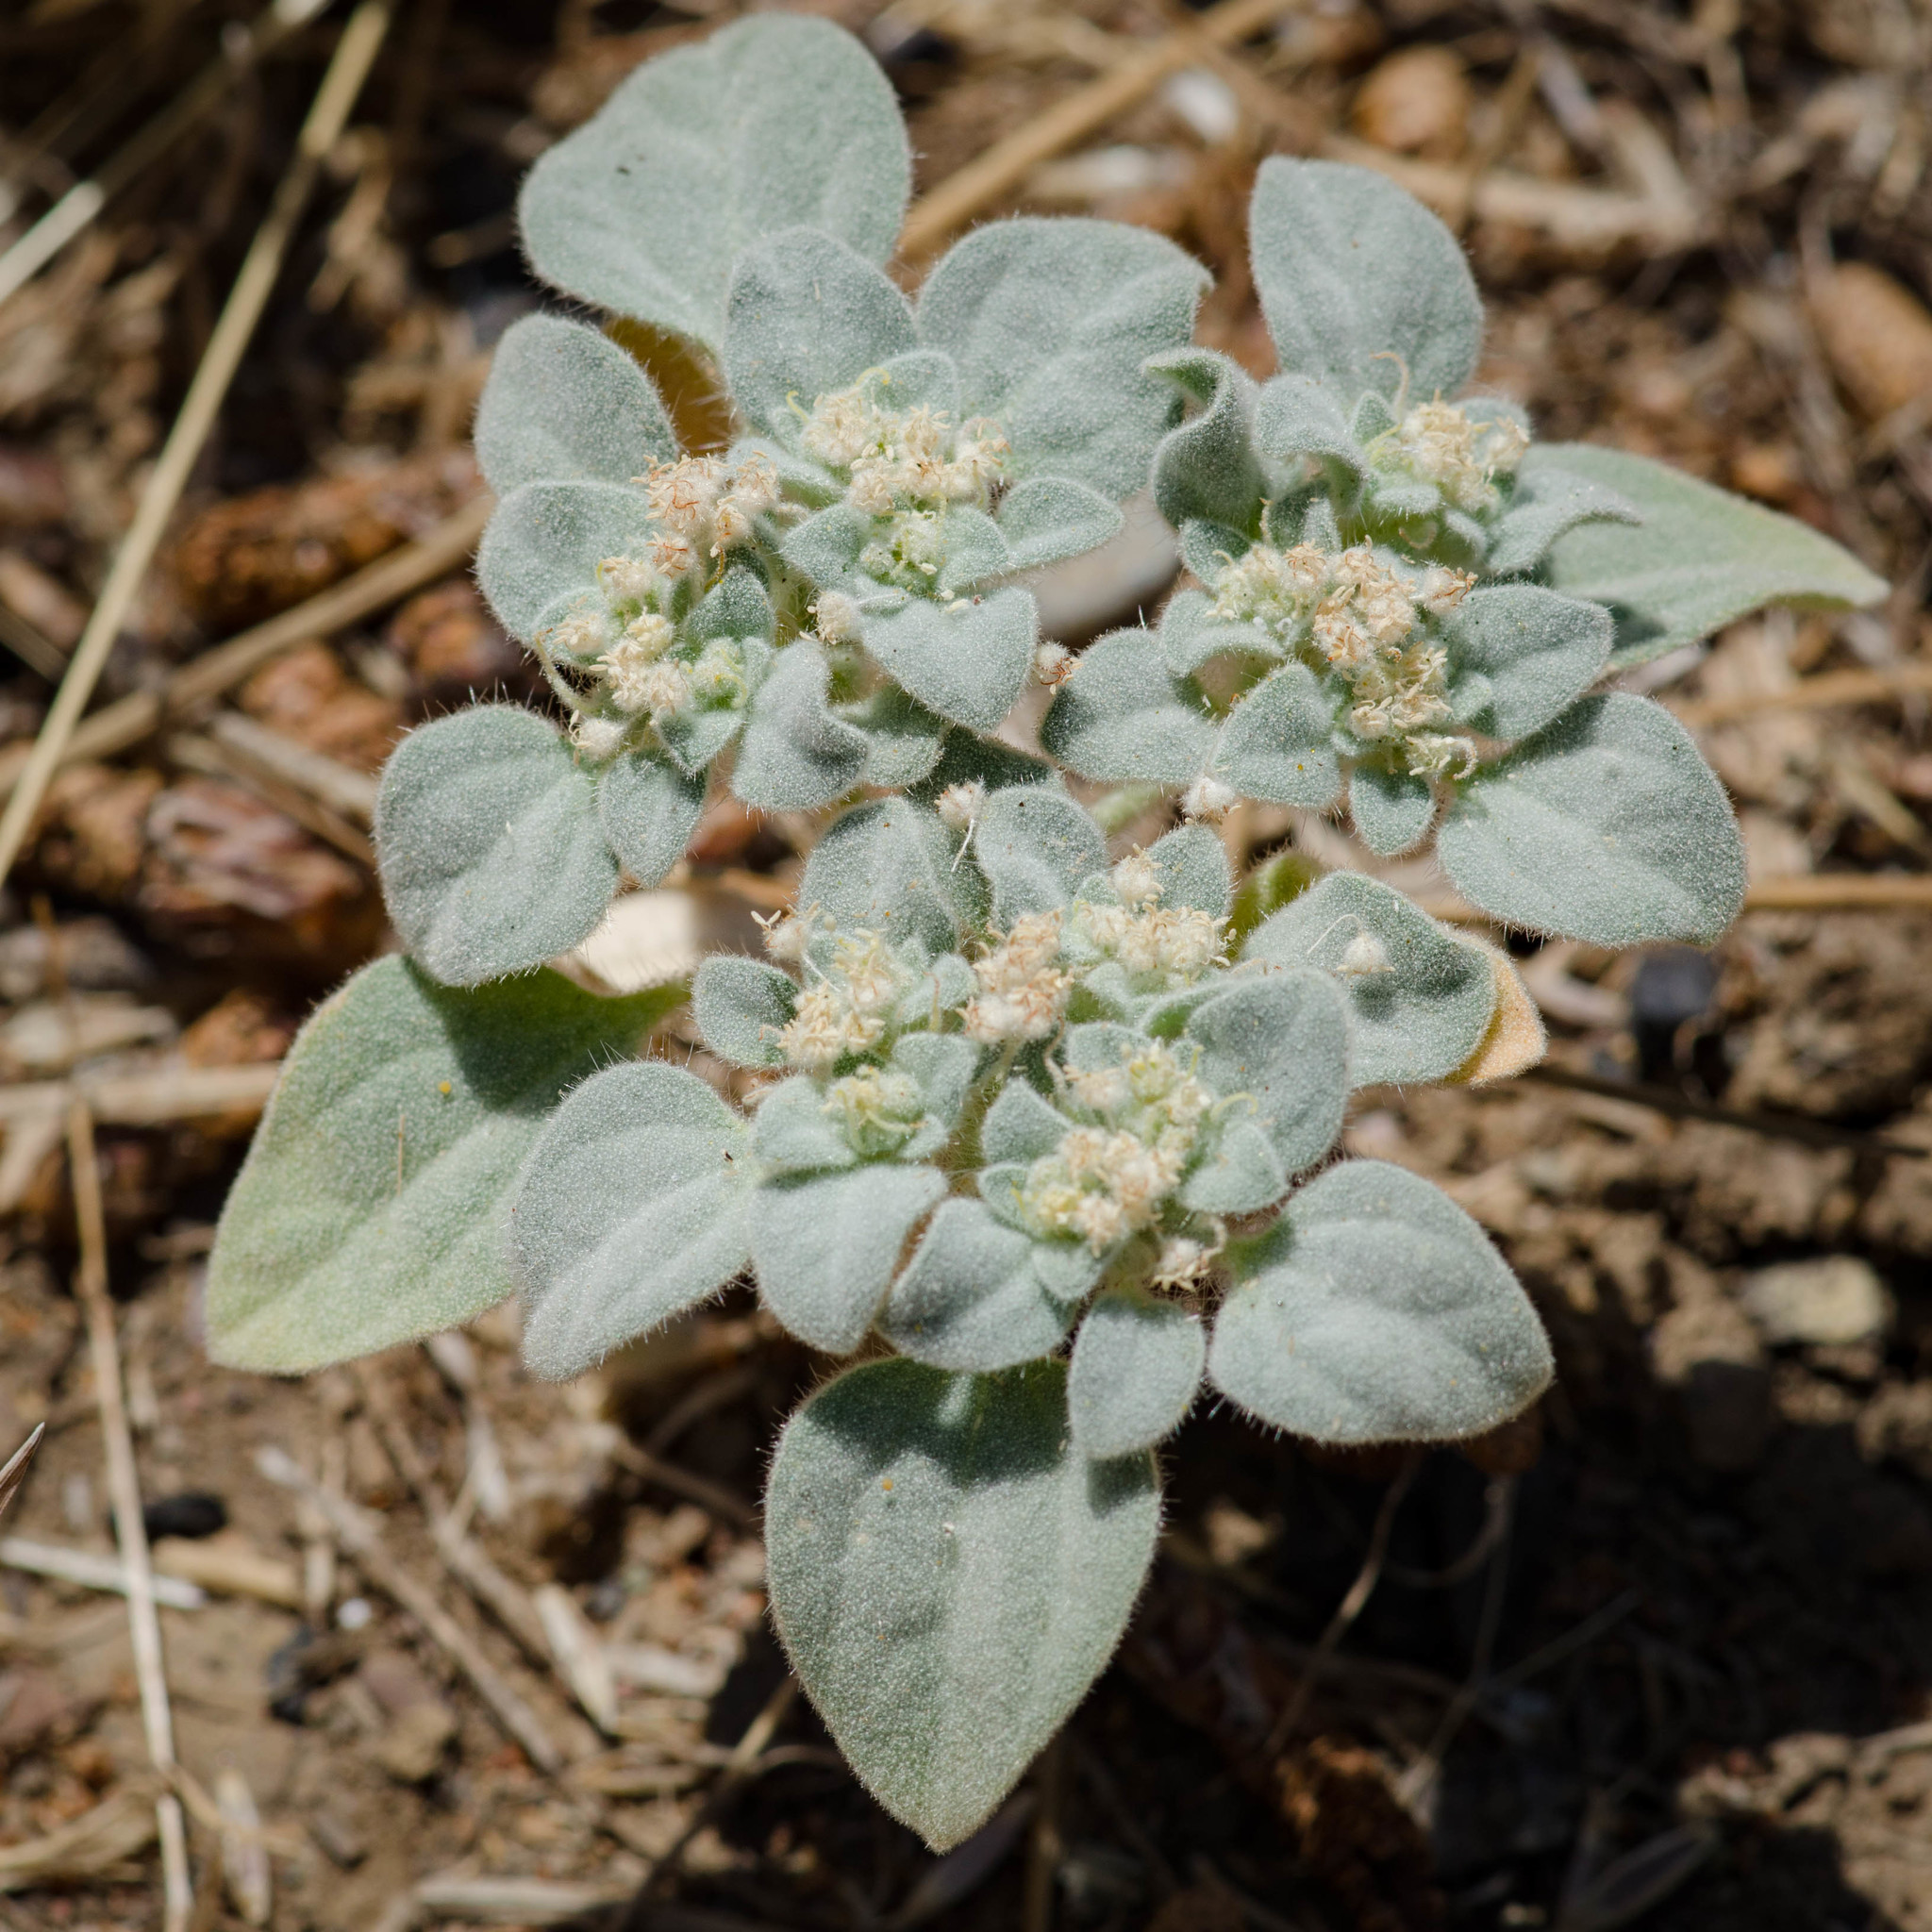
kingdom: Plantae
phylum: Tracheophyta
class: Magnoliopsida
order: Malpighiales
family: Euphorbiaceae
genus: Croton
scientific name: Croton setiger
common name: Dove weed
